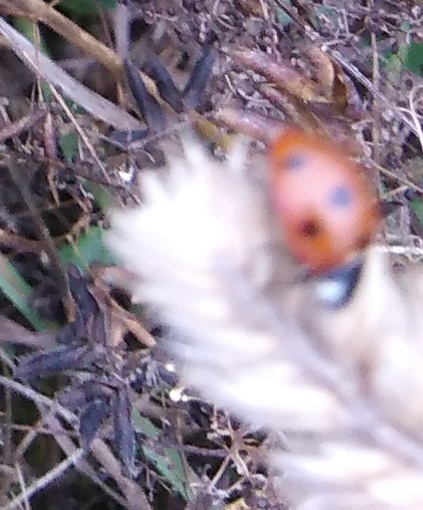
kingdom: Animalia
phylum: Arthropoda
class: Insecta
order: Coleoptera
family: Coccinellidae
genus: Coccinella
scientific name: Coccinella septempunctata
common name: Sevenspotted lady beetle
